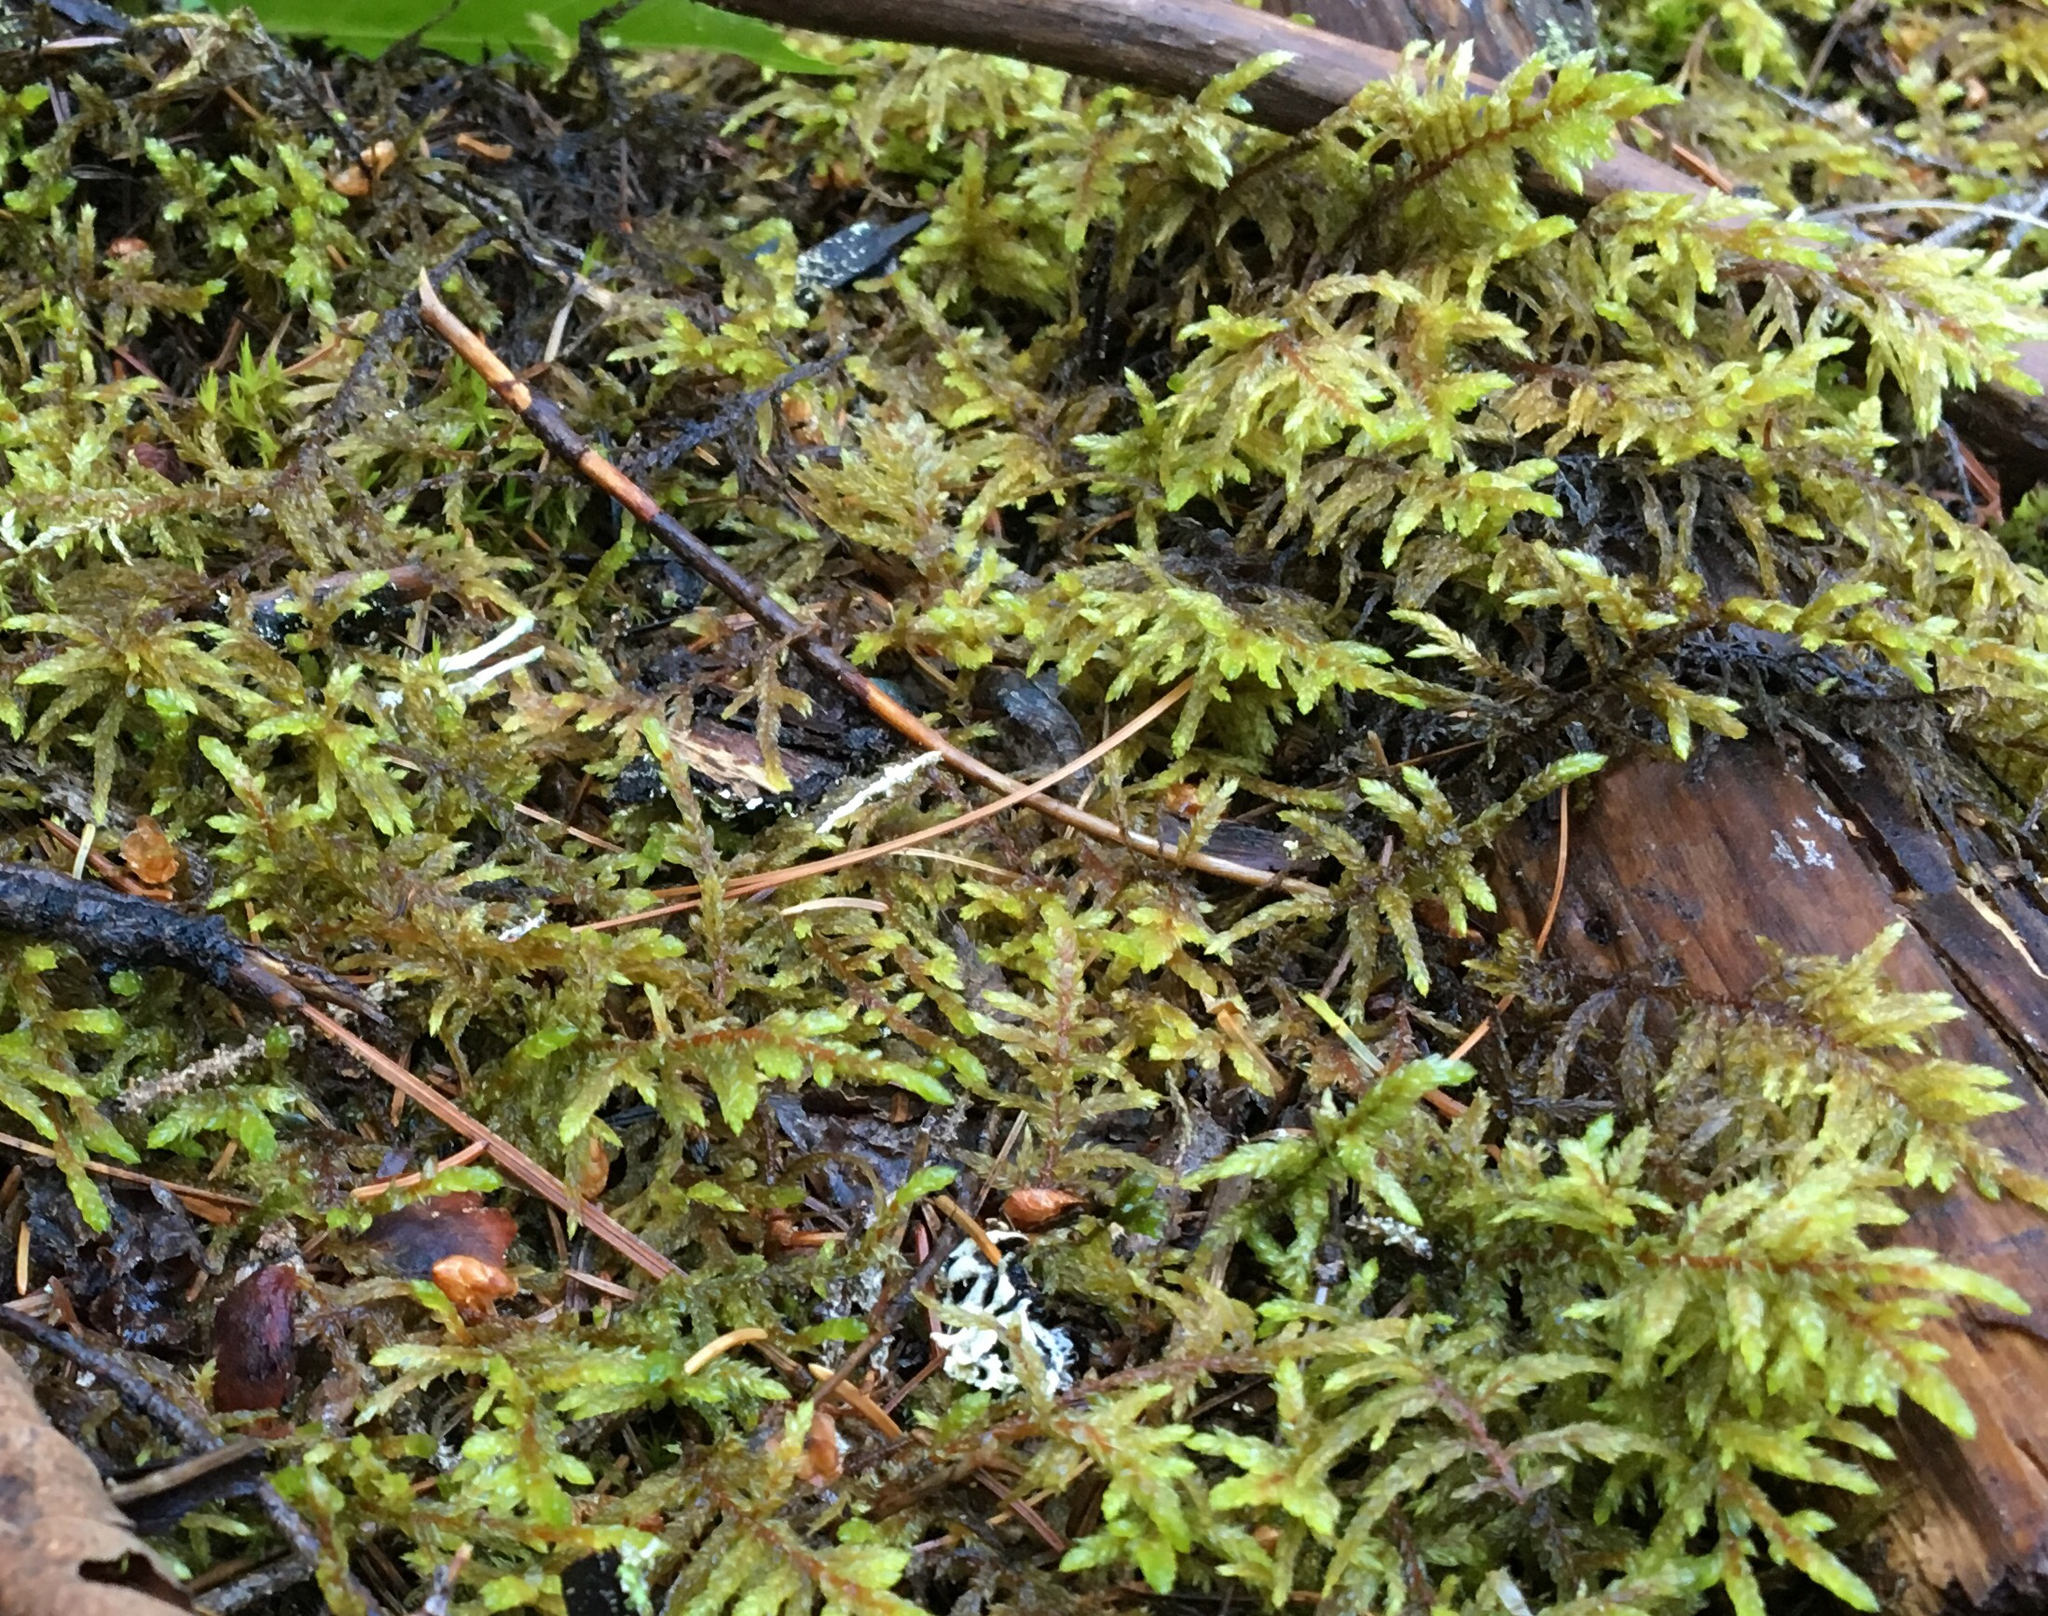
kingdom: Plantae
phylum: Bryophyta
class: Bryopsida
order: Hypnales
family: Hylocomiaceae
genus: Pleurozium
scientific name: Pleurozium schreberi
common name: Red-stemmed feather moss
